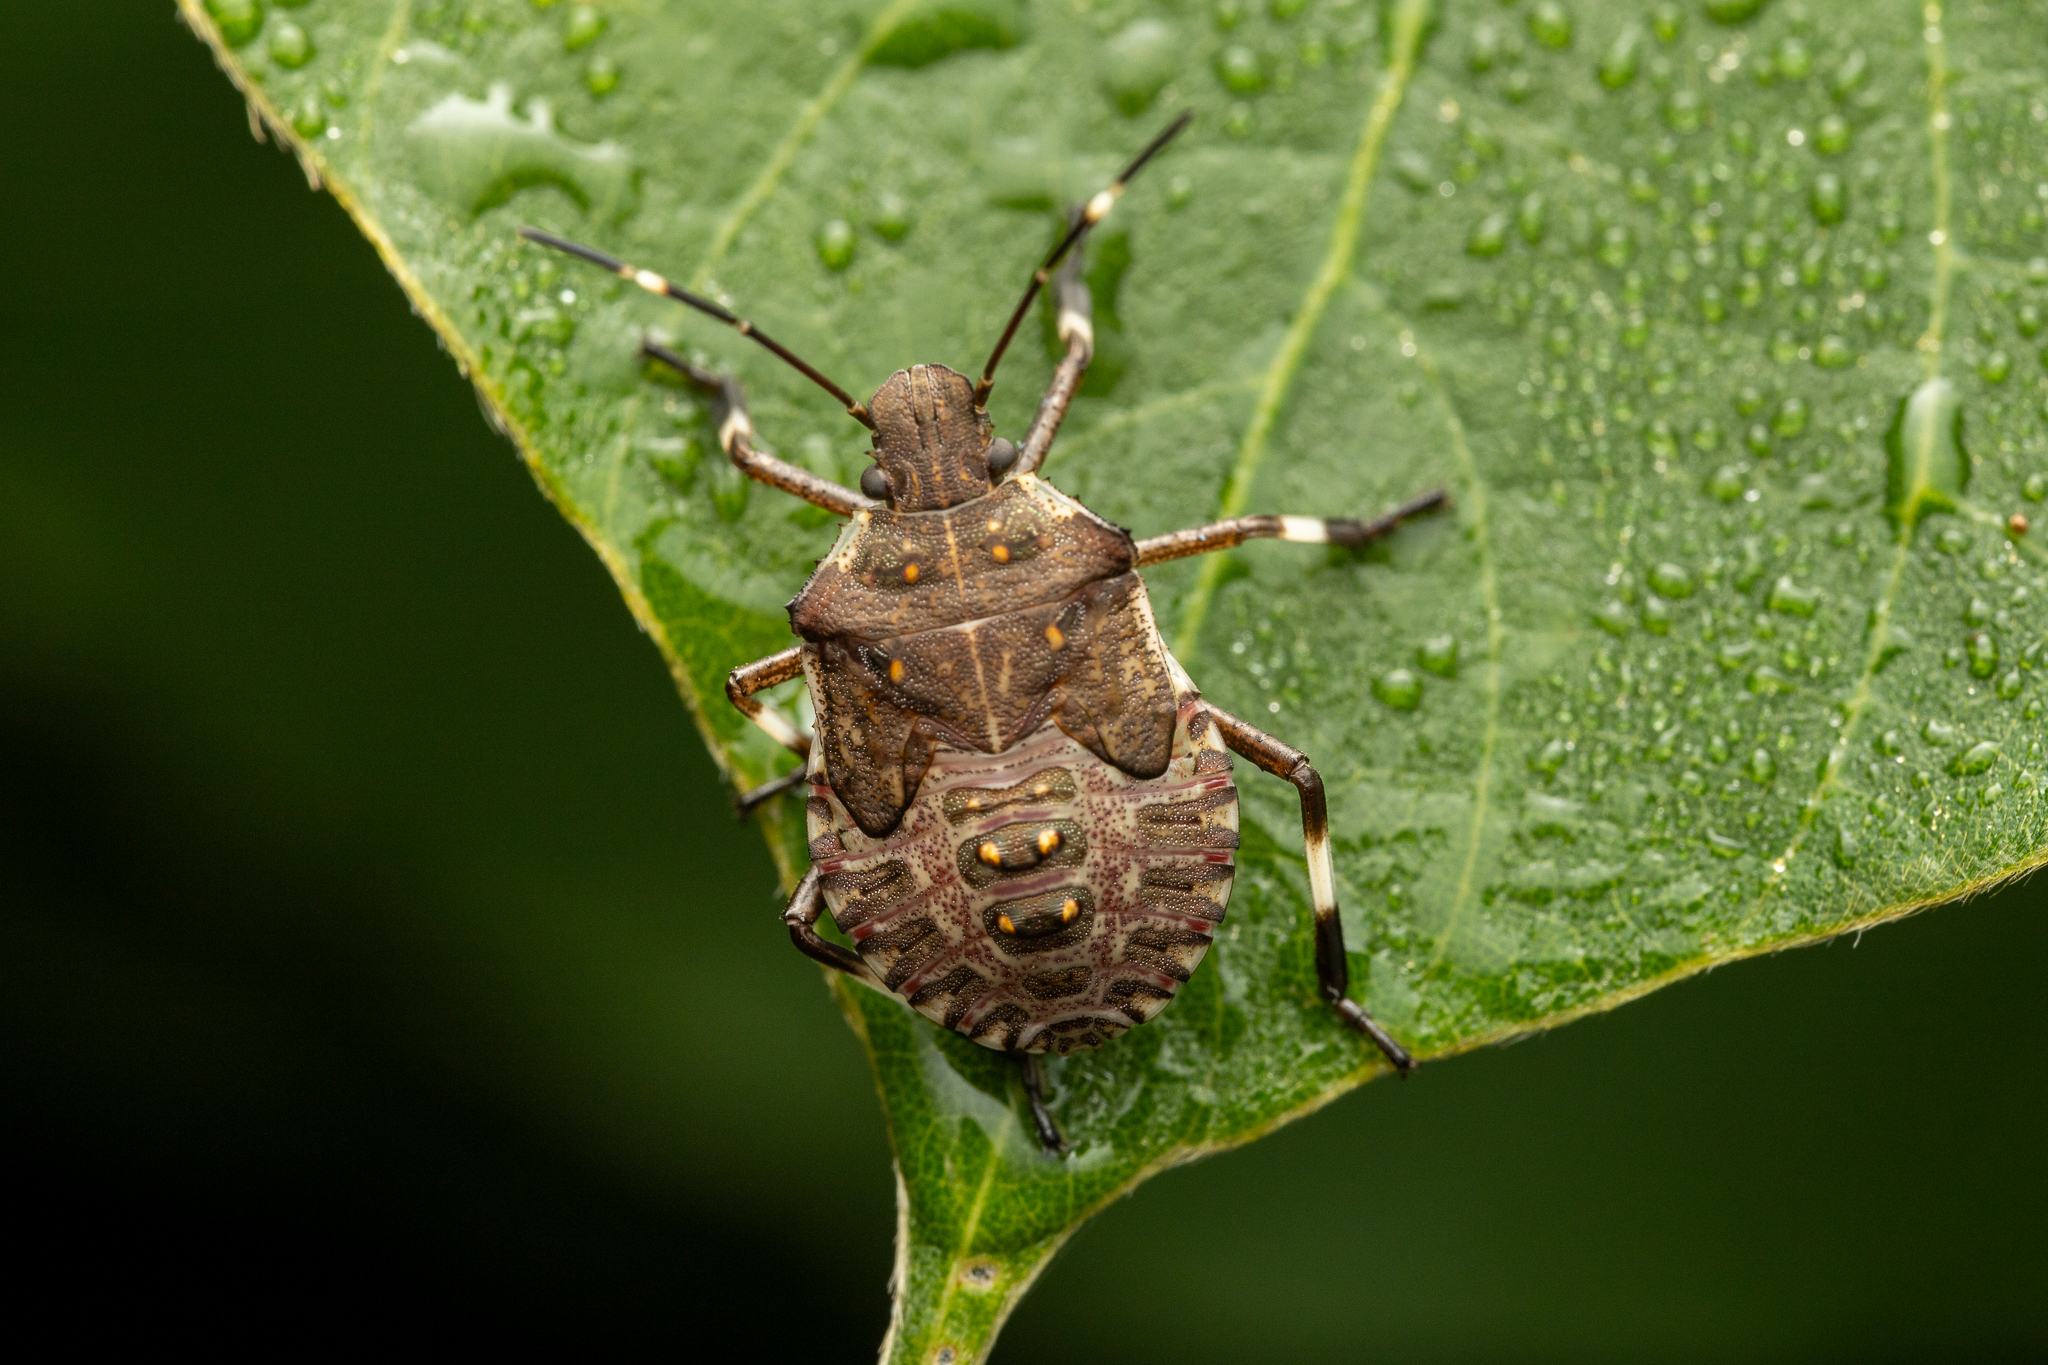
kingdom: Animalia
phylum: Arthropoda
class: Insecta
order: Hemiptera
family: Pentatomidae
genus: Halyomorpha
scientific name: Halyomorpha halys
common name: Brown marmorated stink bug
